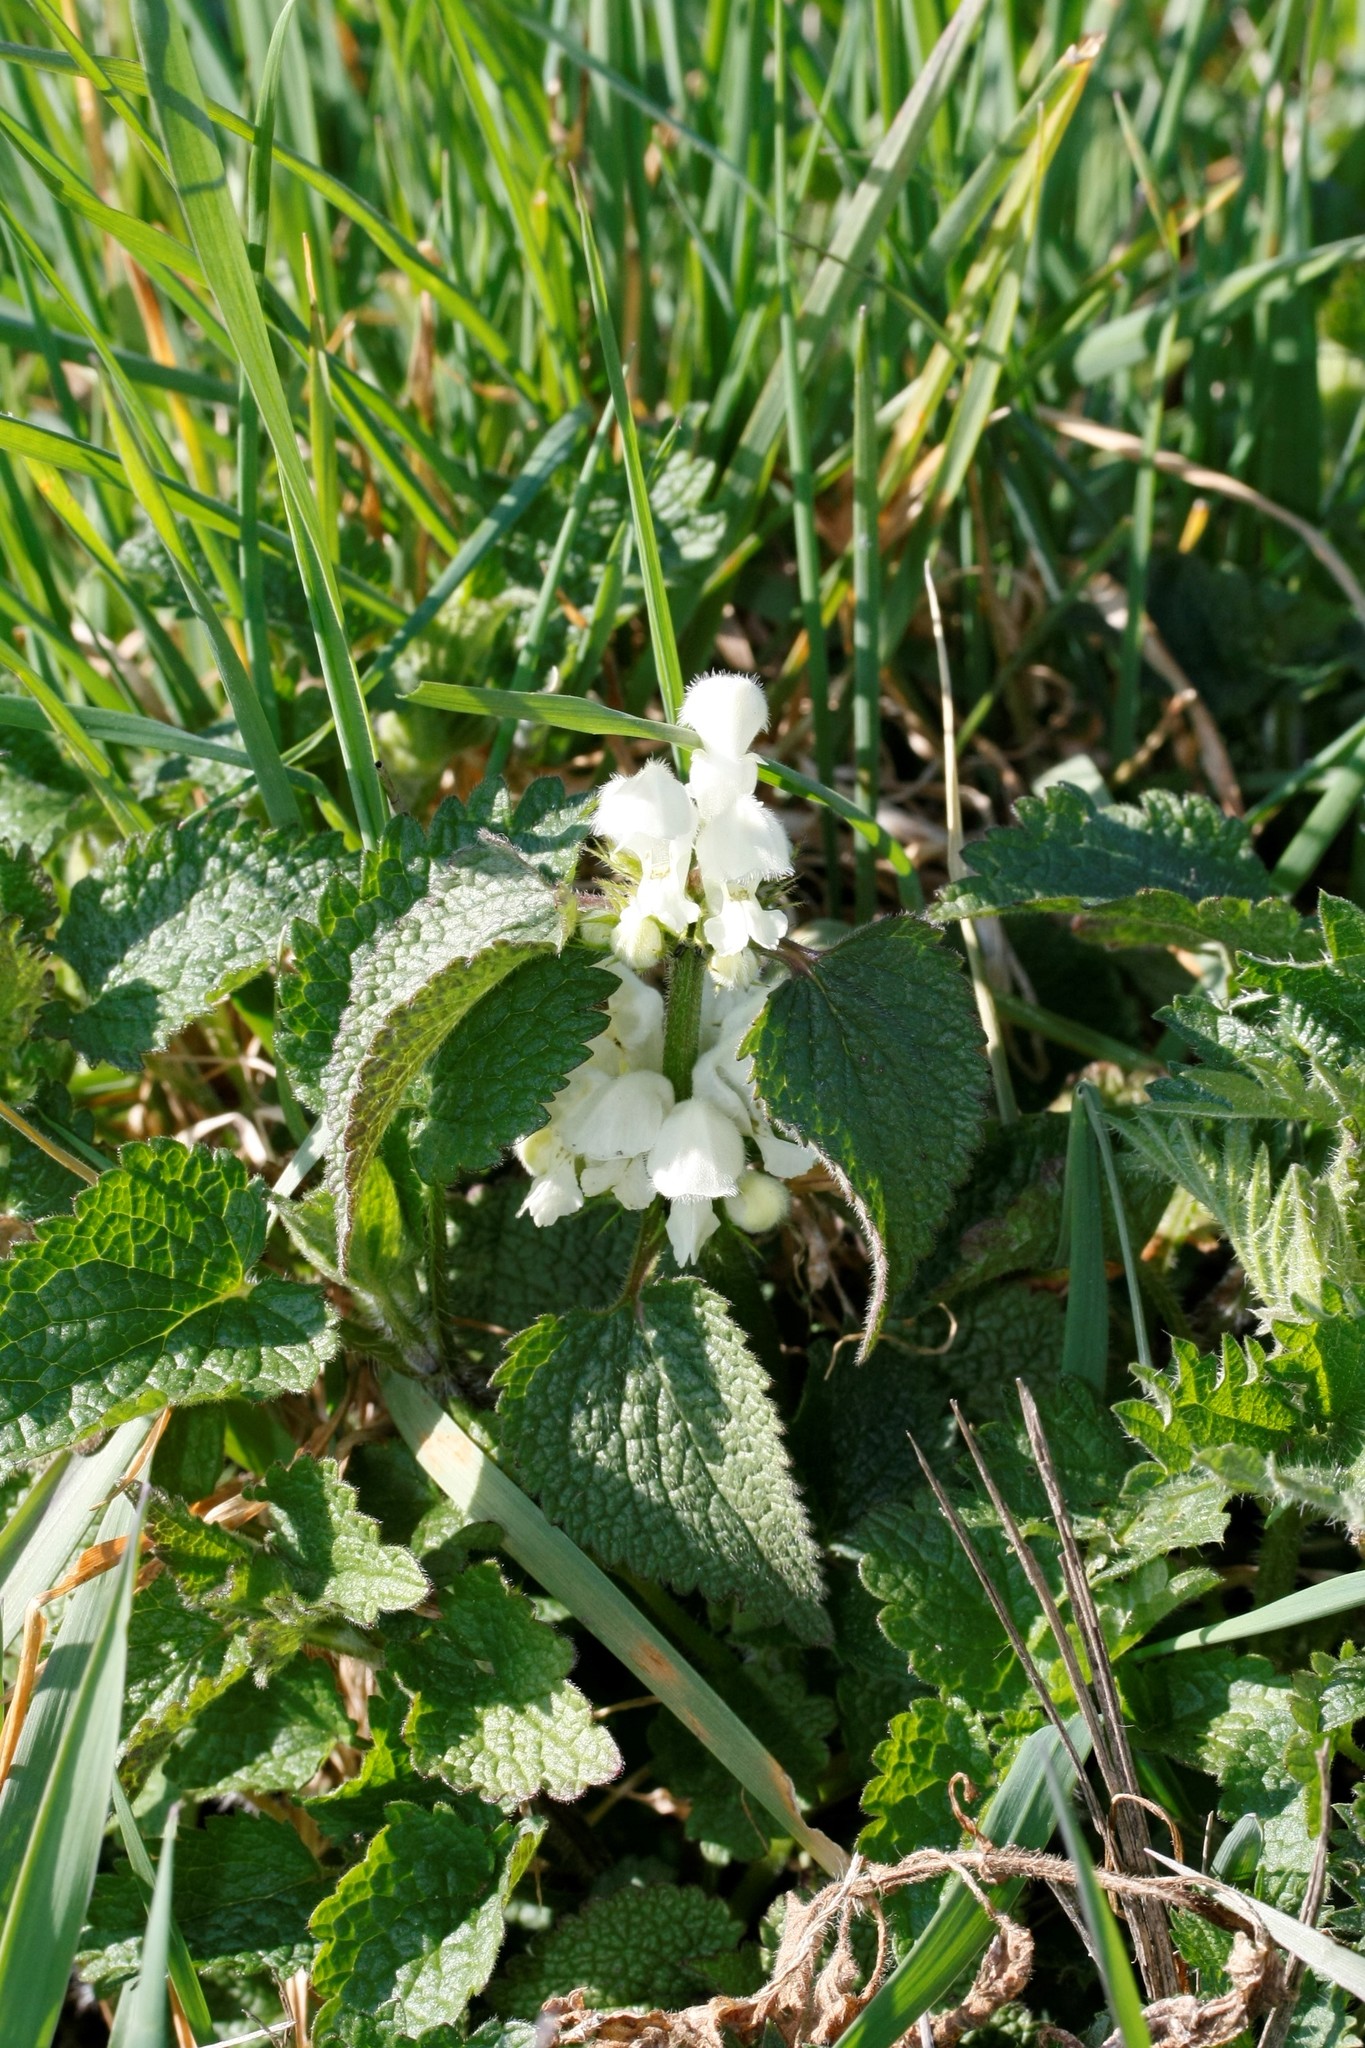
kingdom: Plantae
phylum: Tracheophyta
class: Magnoliopsida
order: Lamiales
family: Lamiaceae
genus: Lamium
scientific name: Lamium album
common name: White dead-nettle
